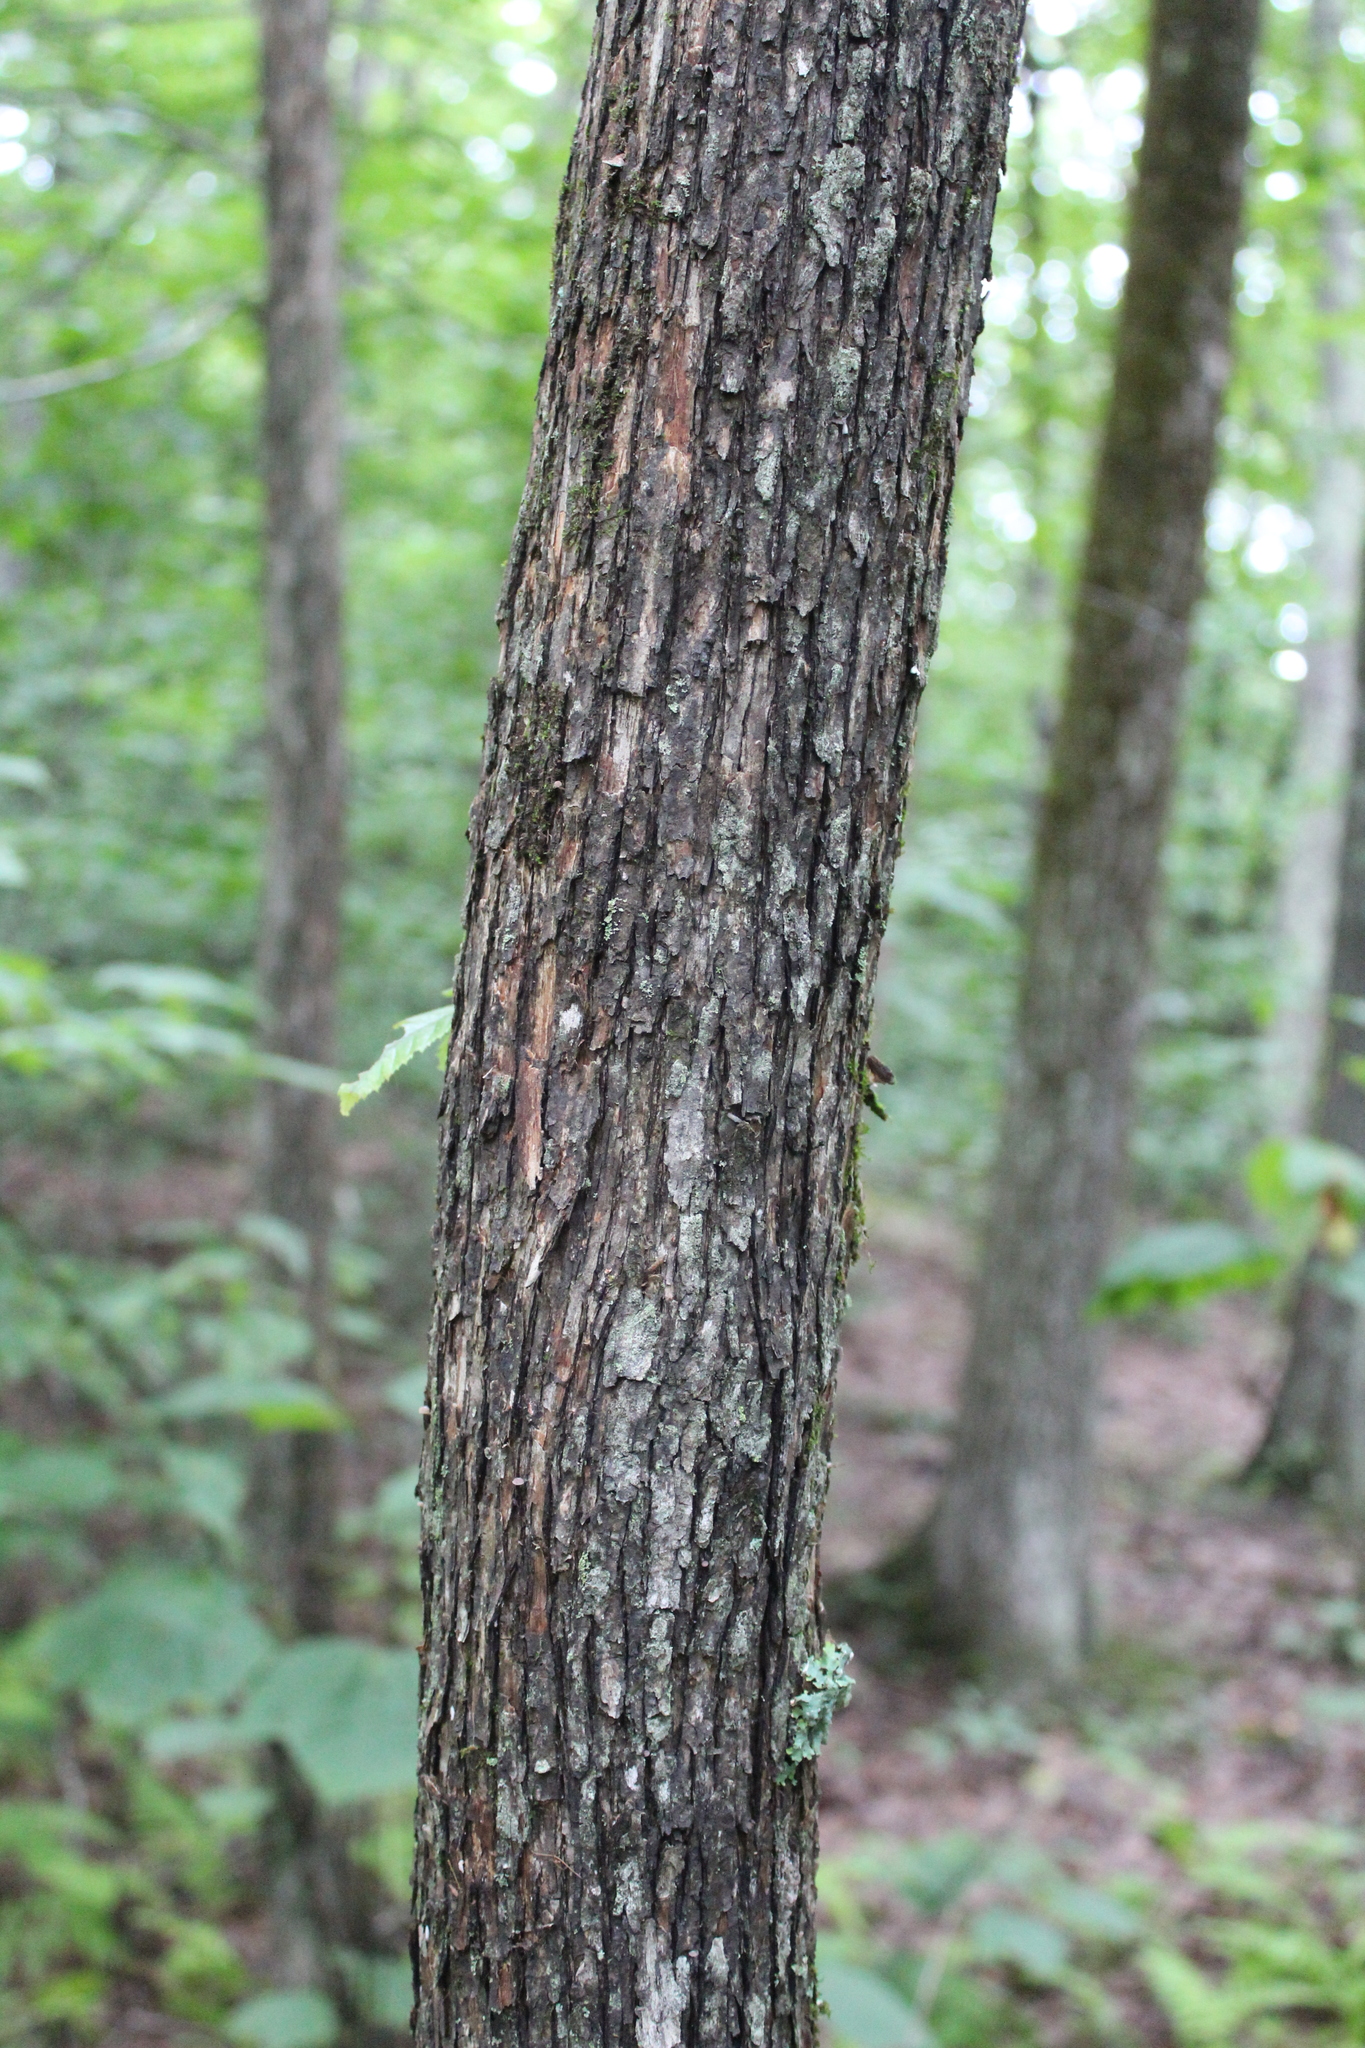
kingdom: Plantae
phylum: Tracheophyta
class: Magnoliopsida
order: Fagales
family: Betulaceae
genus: Ostrya
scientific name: Ostrya virginiana
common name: Ironwood
